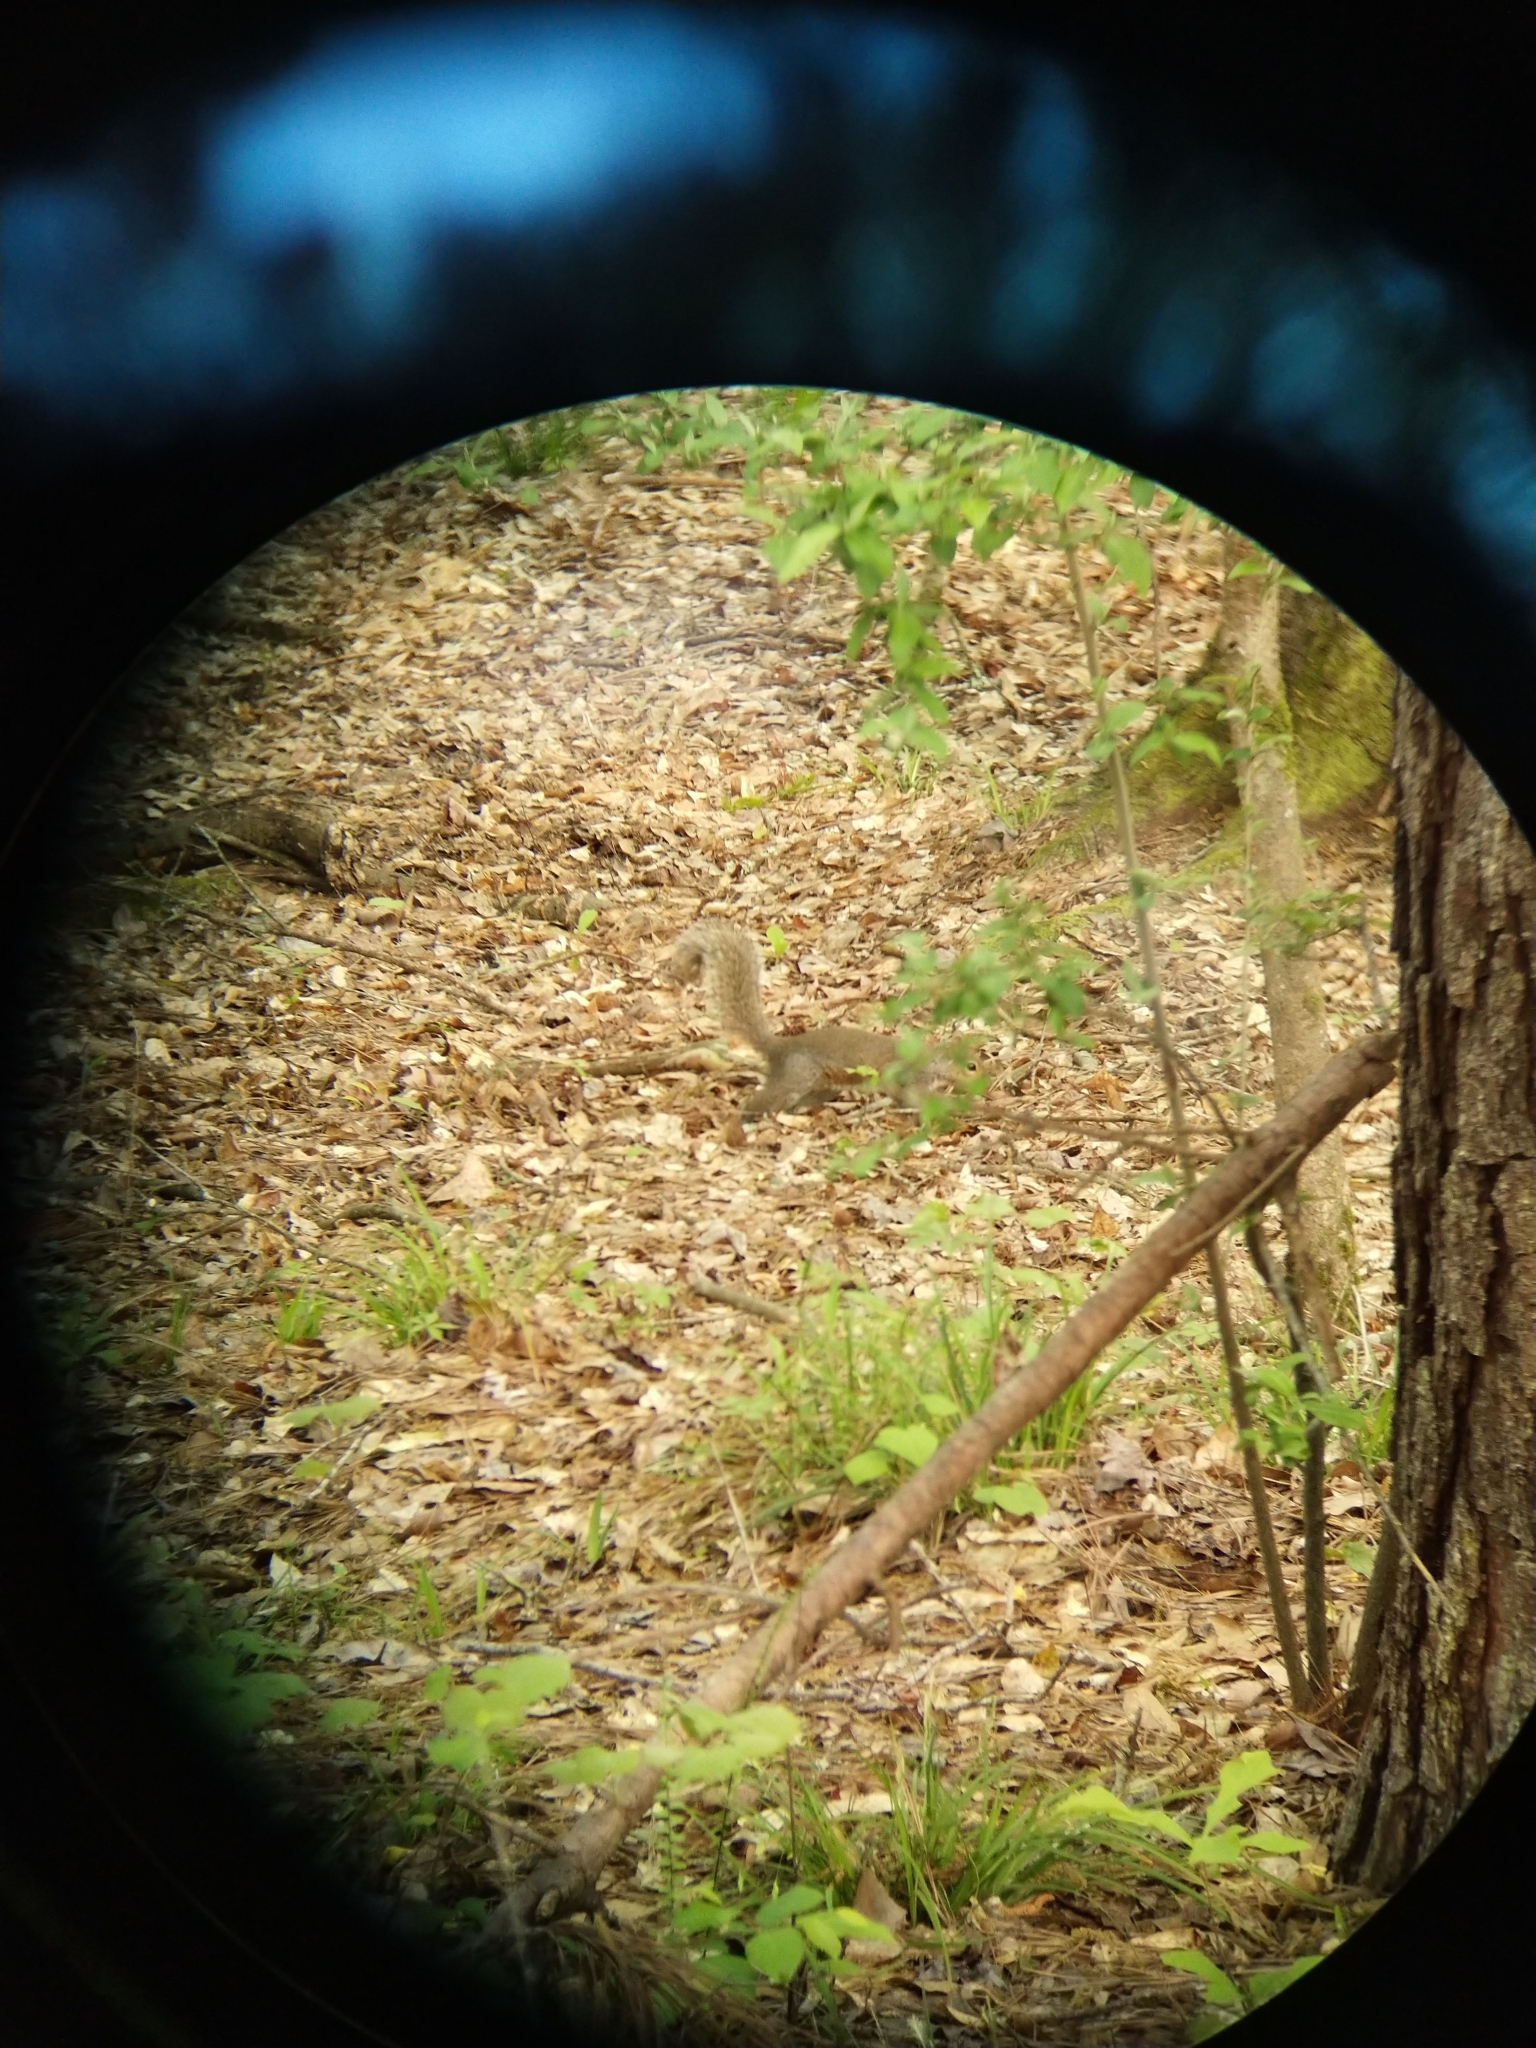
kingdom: Animalia
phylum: Chordata
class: Mammalia
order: Rodentia
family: Sciuridae
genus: Sciurus
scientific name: Sciurus carolinensis
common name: Eastern gray squirrel
